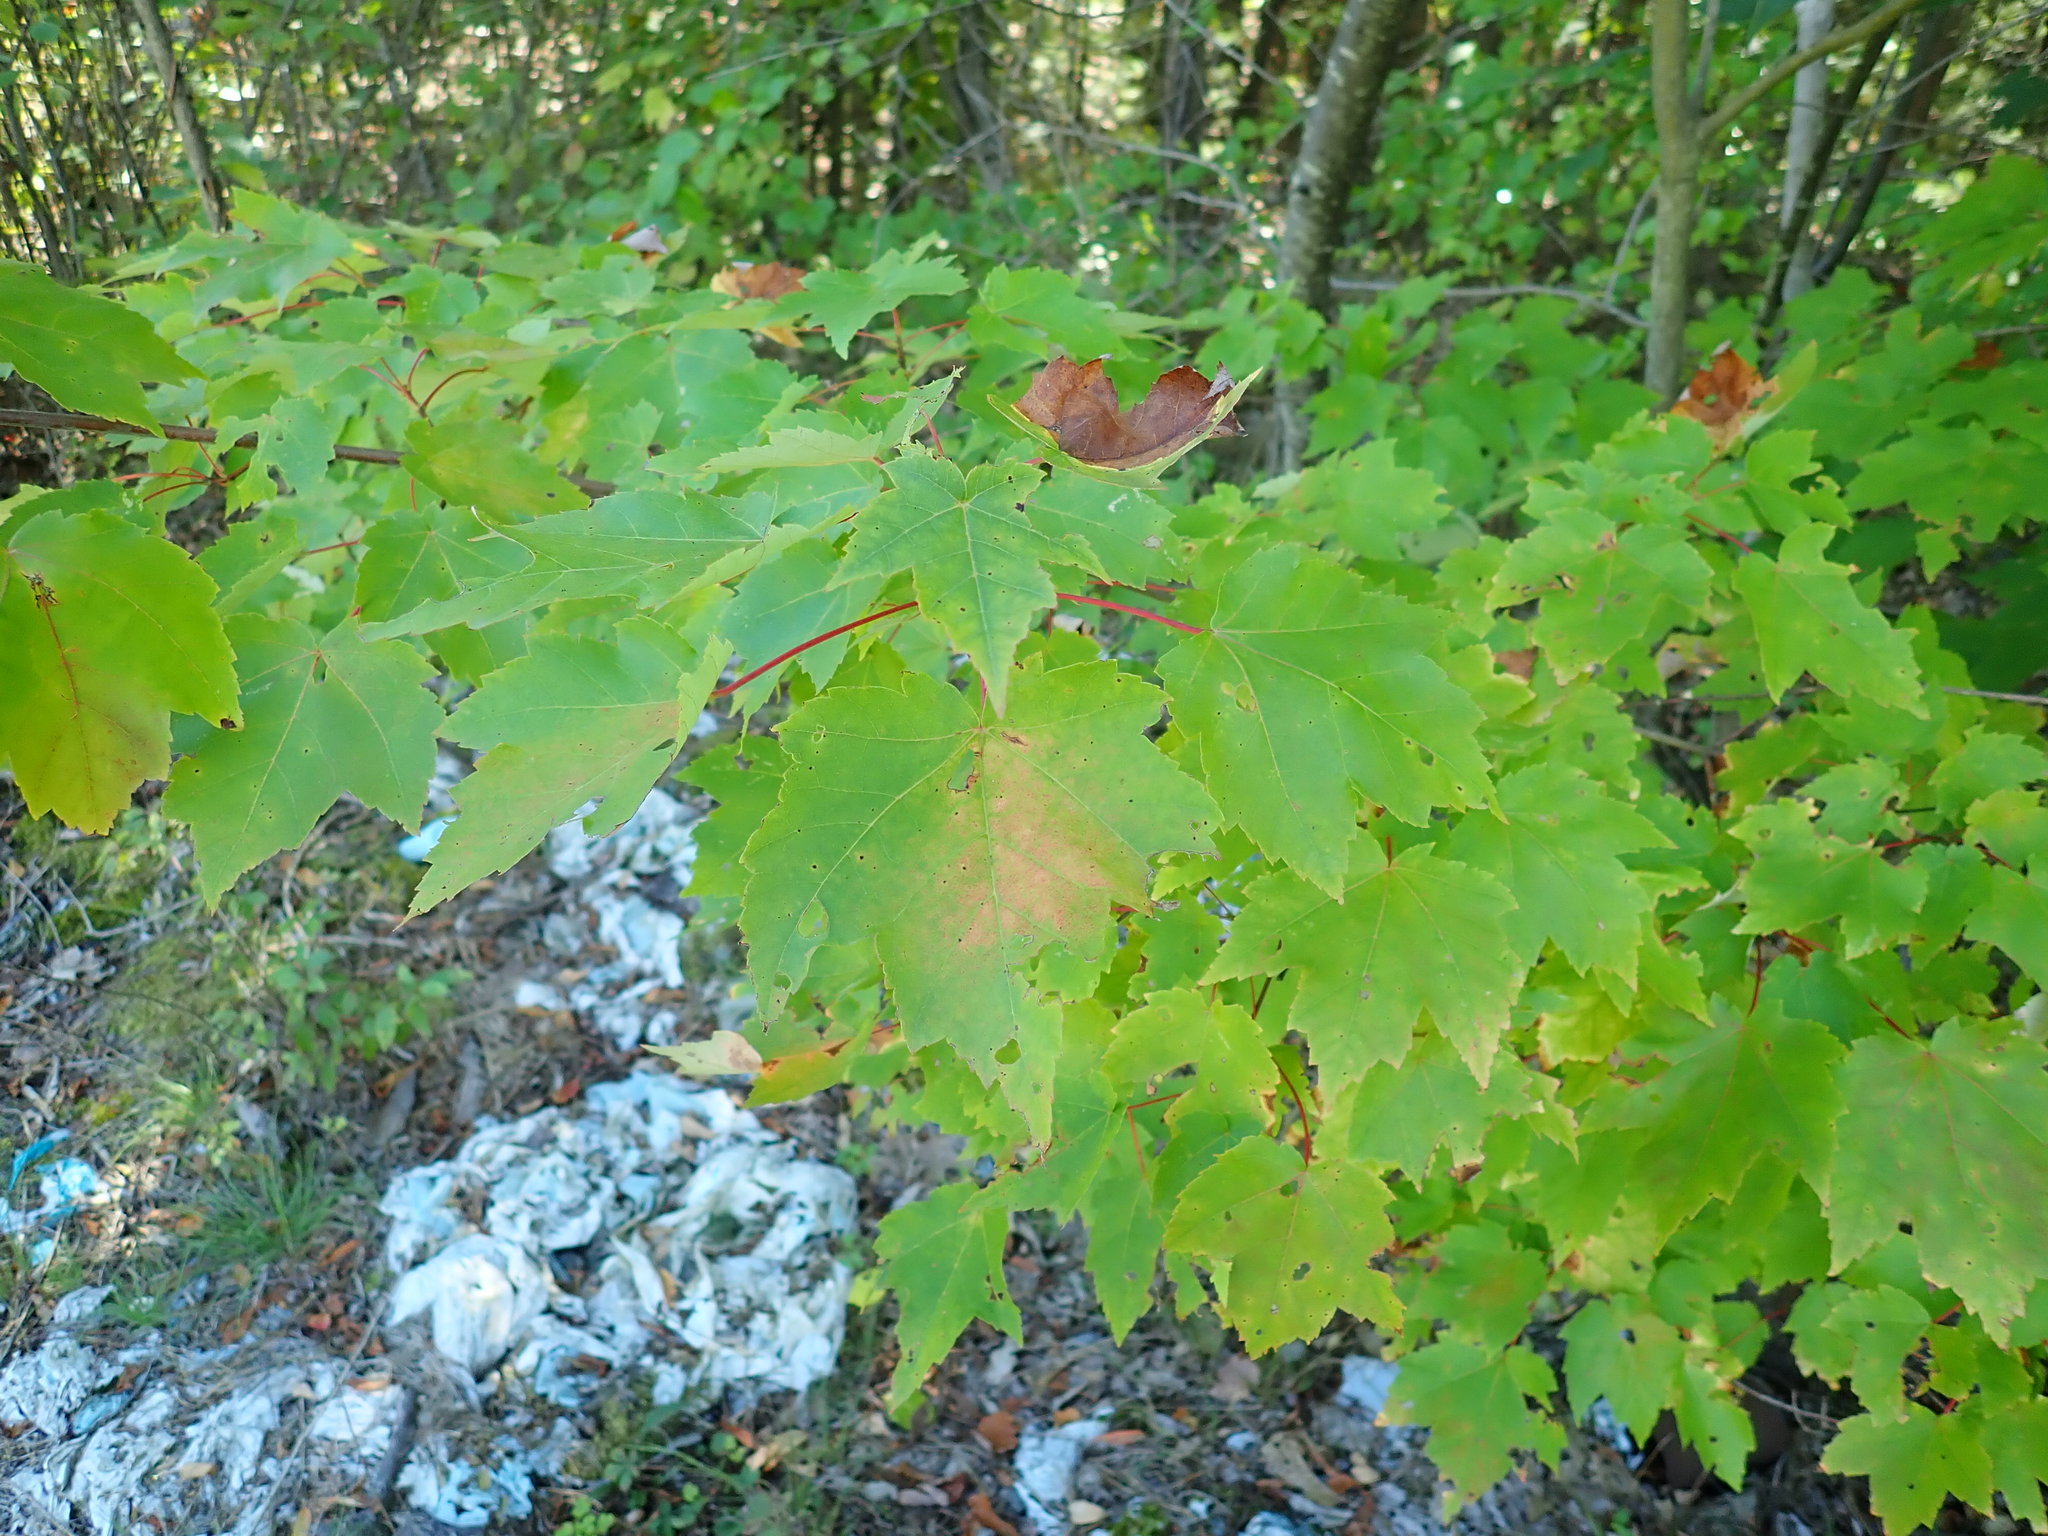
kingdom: Plantae
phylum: Tracheophyta
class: Magnoliopsida
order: Sapindales
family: Sapindaceae
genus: Acer
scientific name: Acer rubrum
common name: Red maple
